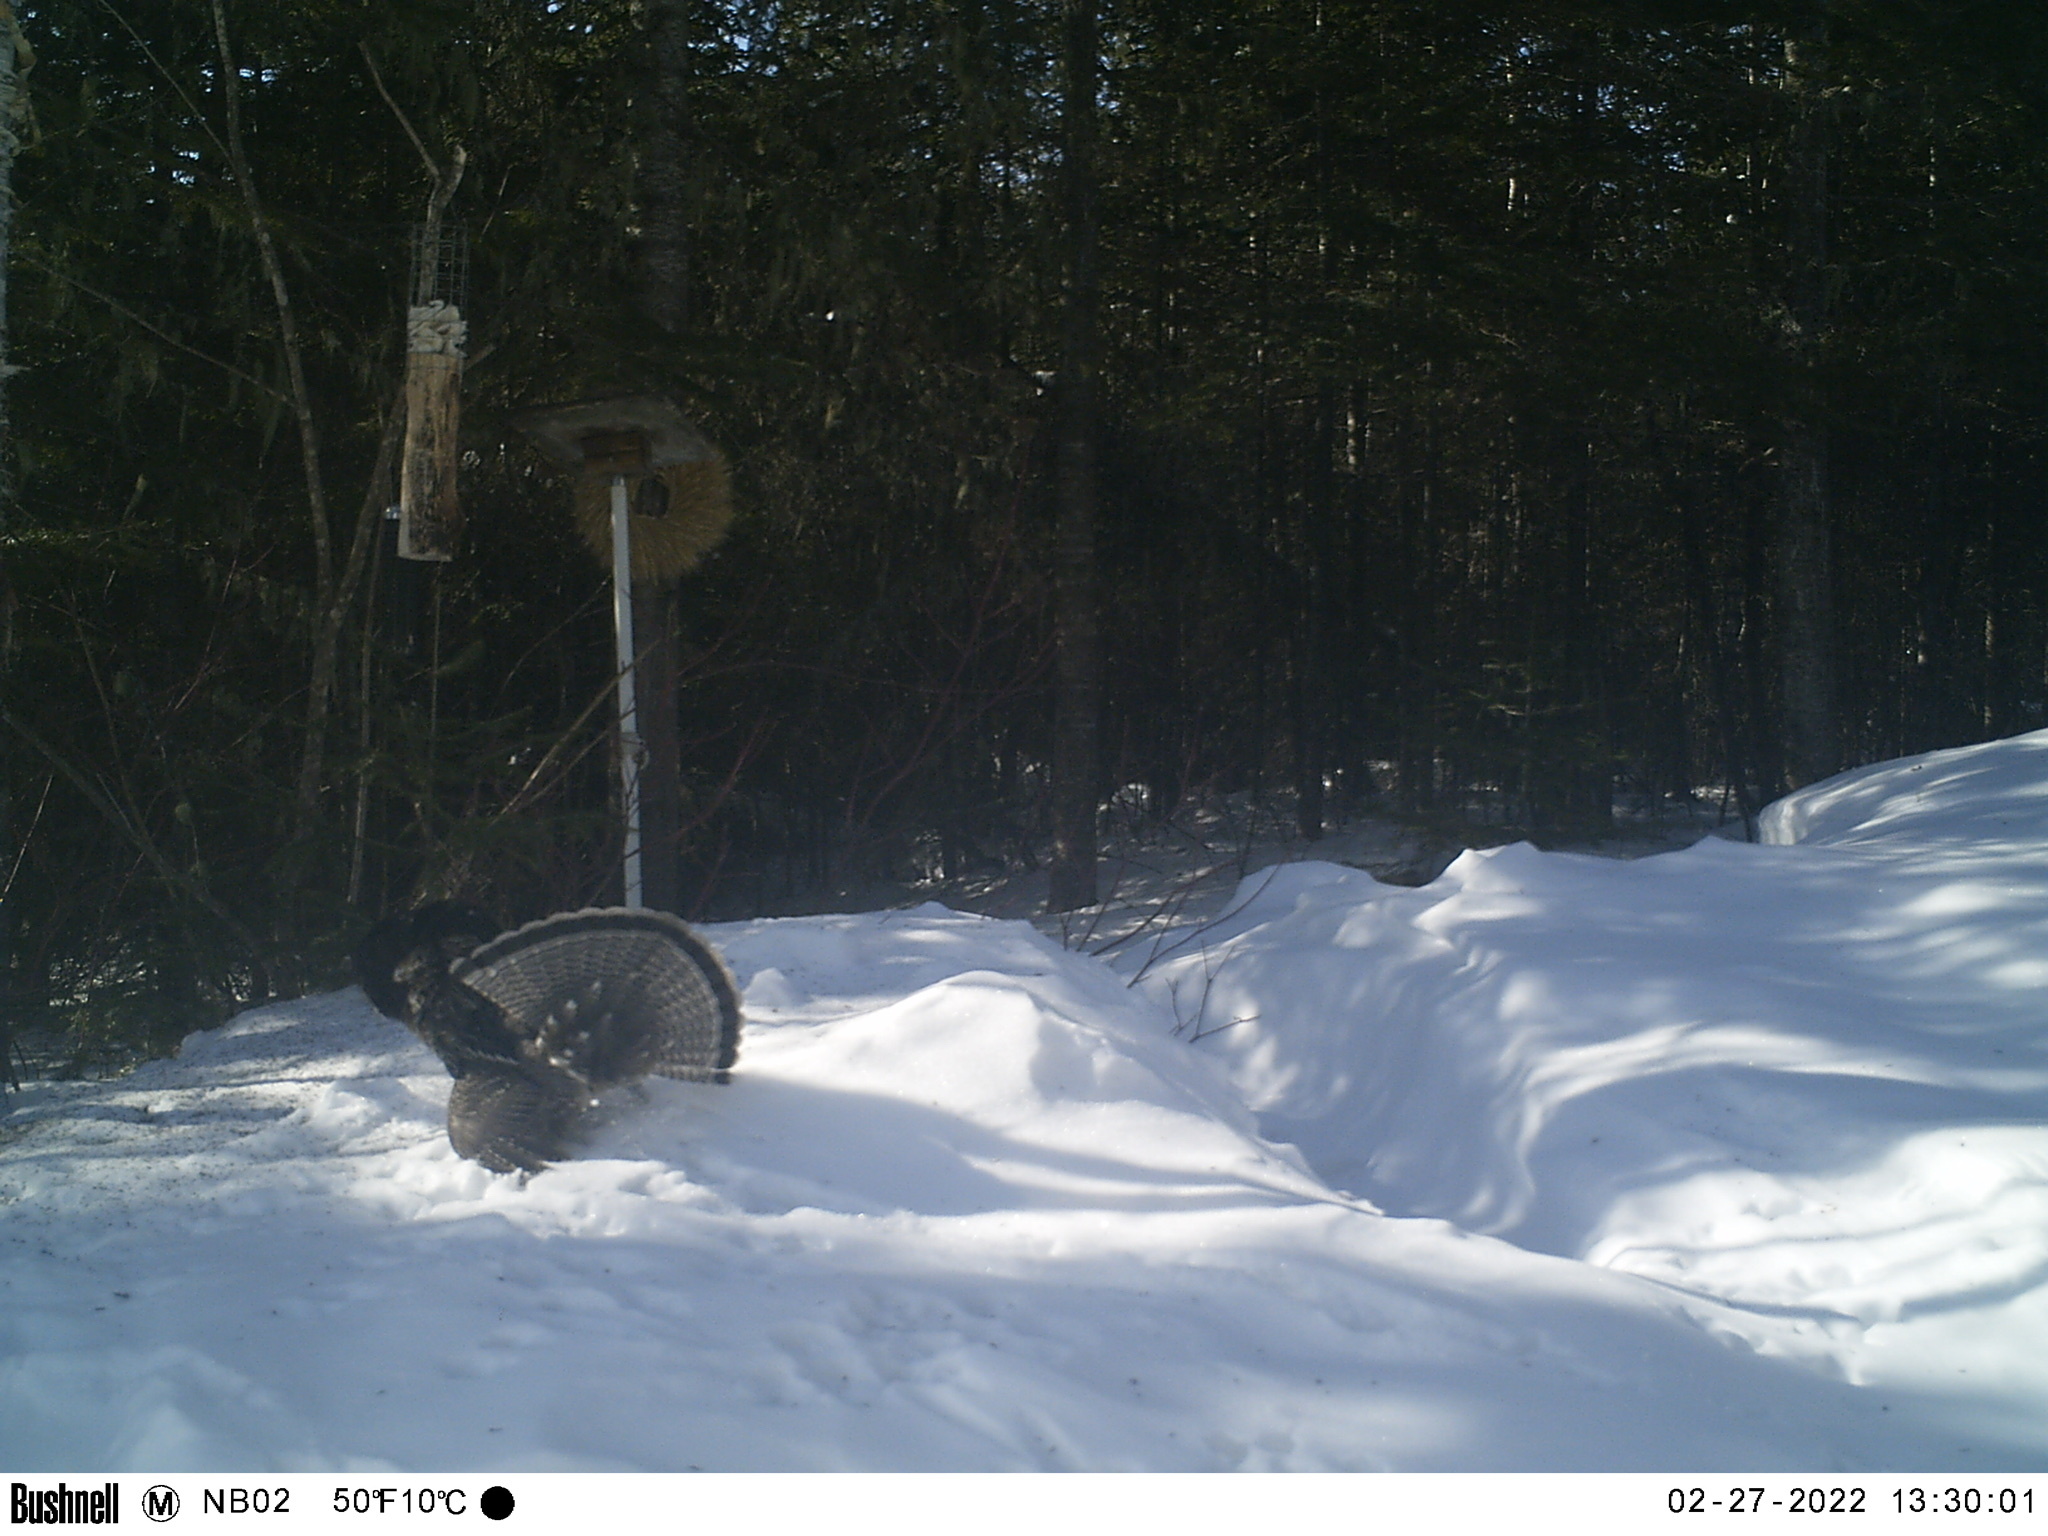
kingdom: Animalia
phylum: Chordata
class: Aves
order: Galliformes
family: Phasianidae
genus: Bonasa
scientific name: Bonasa umbellus
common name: Ruffed grouse
